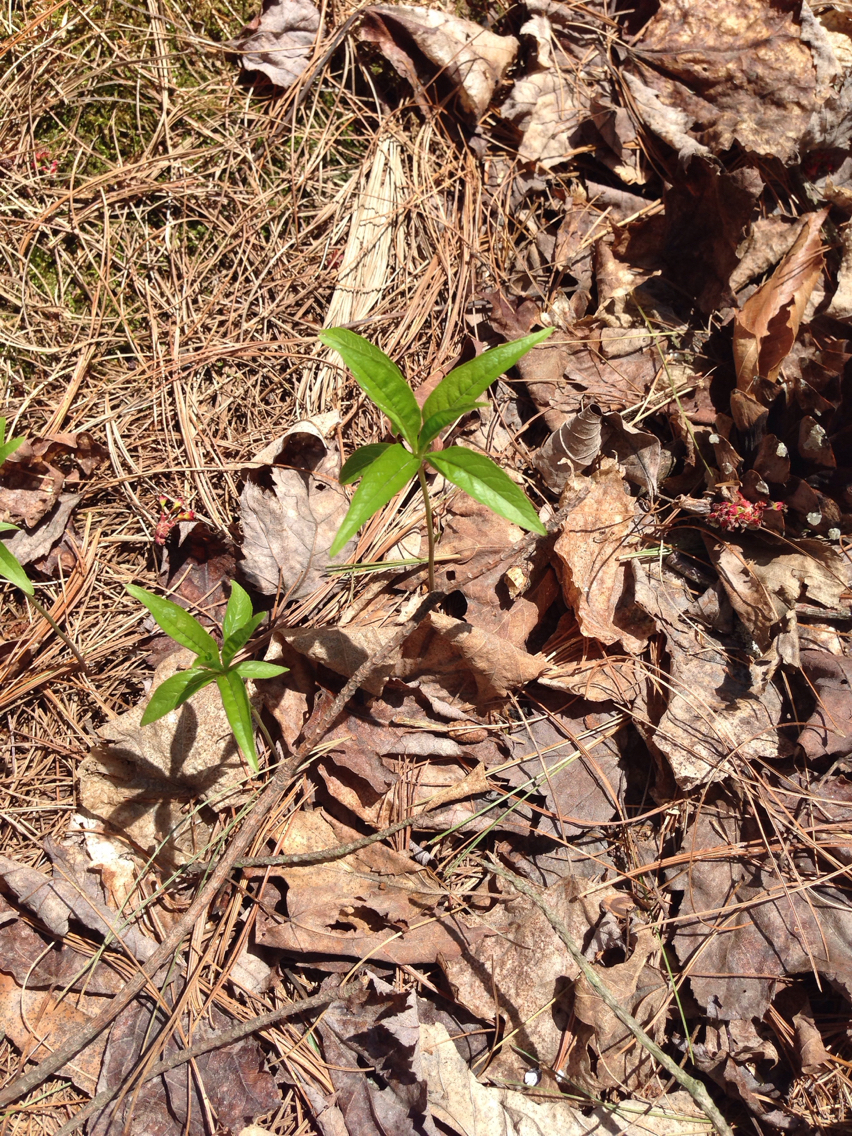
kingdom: Plantae
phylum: Tracheophyta
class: Magnoliopsida
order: Ericales
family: Primulaceae
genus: Lysimachia
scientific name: Lysimachia borealis
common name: American starflower
